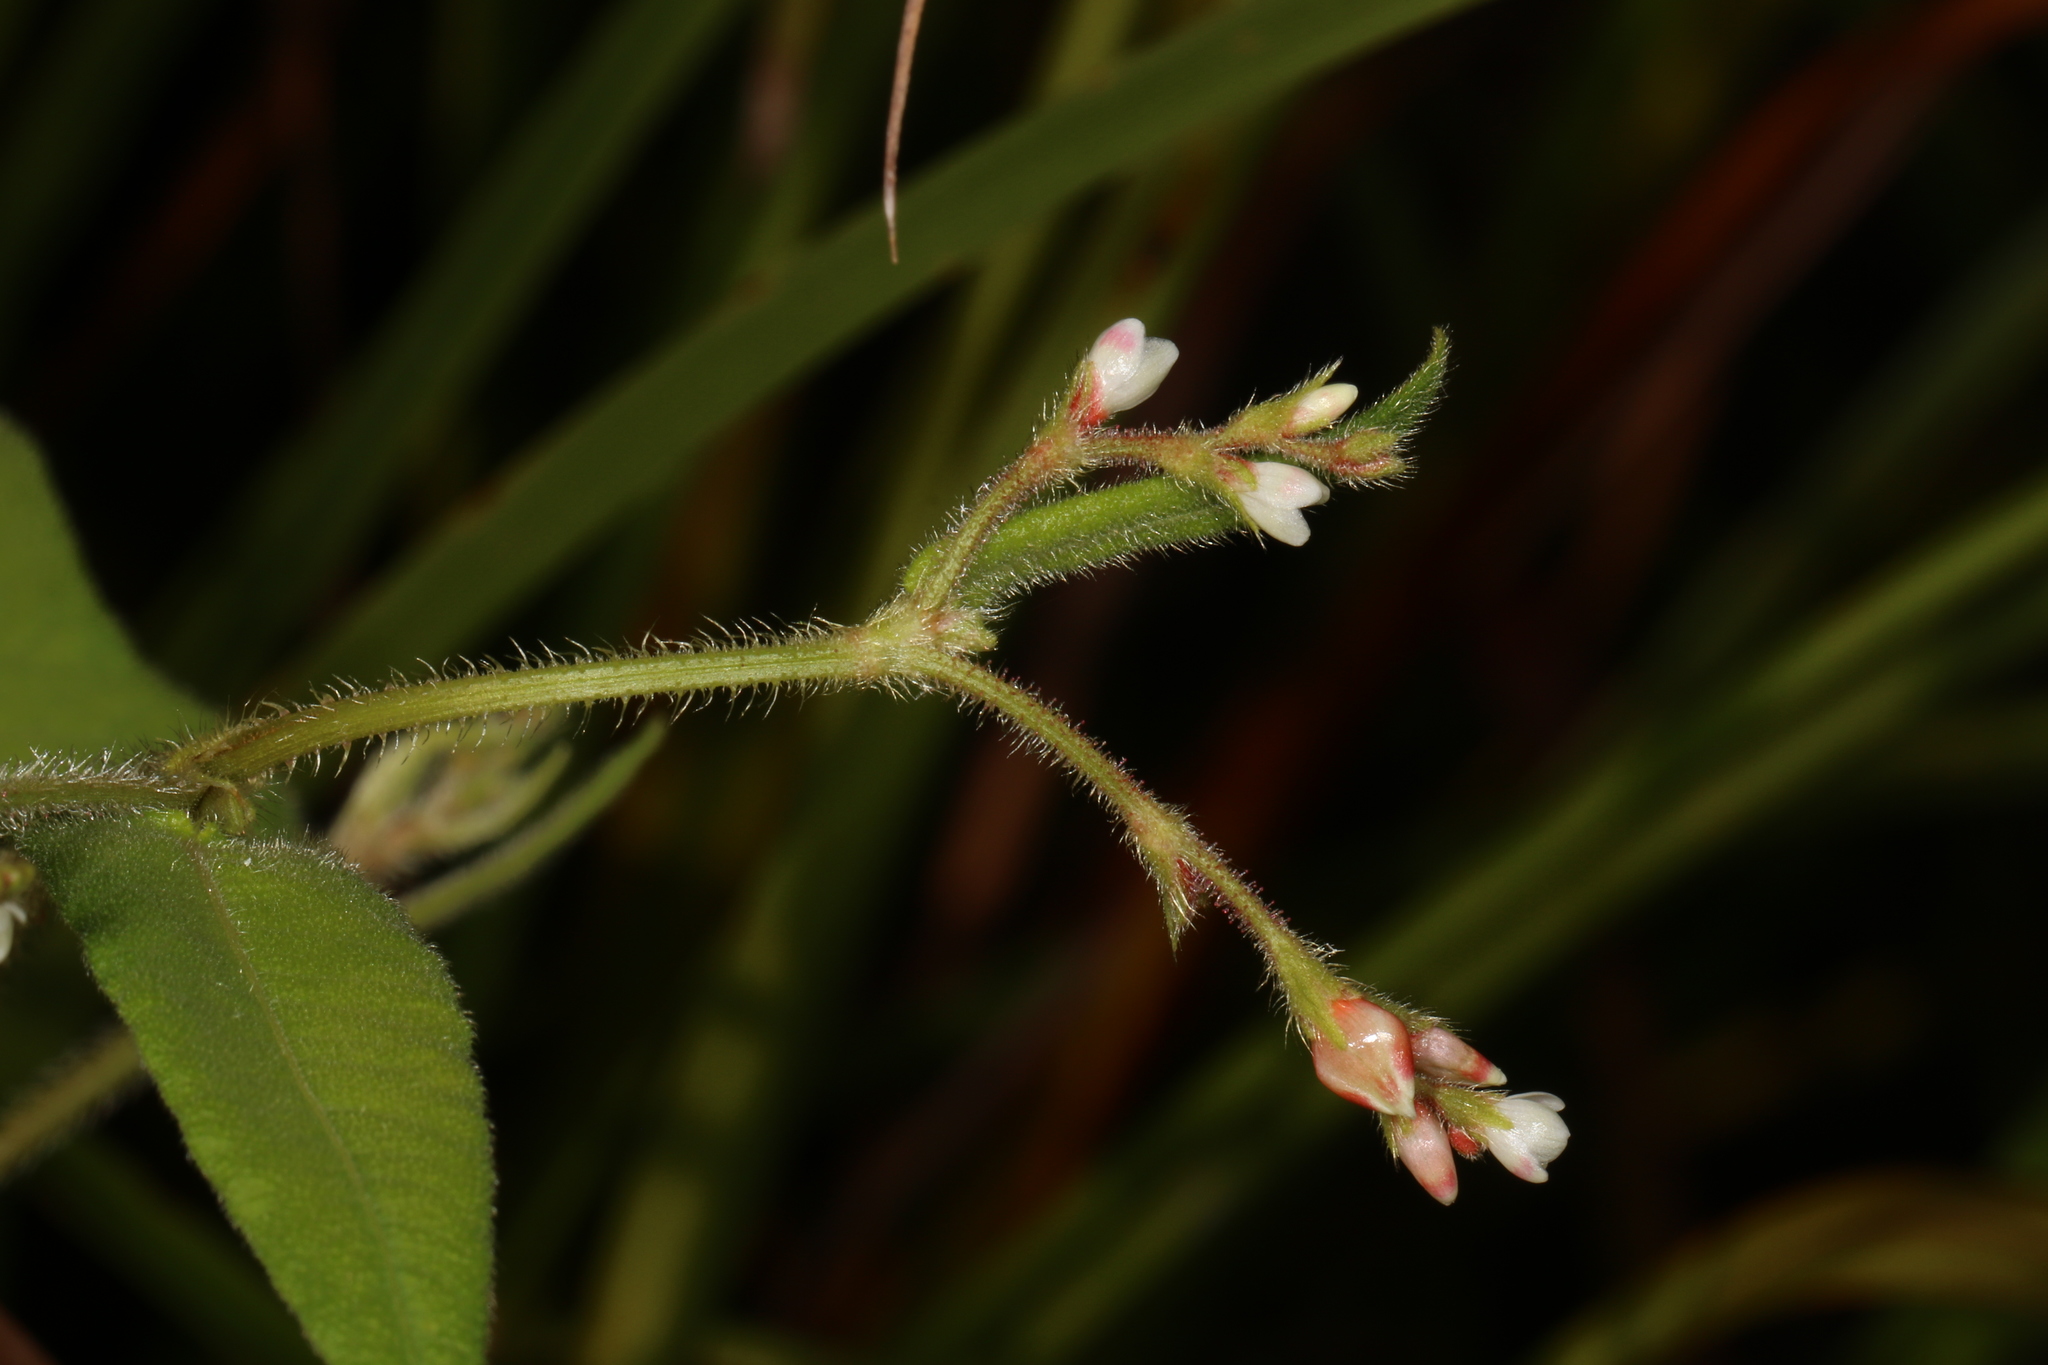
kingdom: Plantae
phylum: Tracheophyta
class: Magnoliopsida
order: Caryophyllales
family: Polygonaceae
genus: Persicaria
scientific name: Persicaria arifolia
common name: Halberd-leaved tear-thumb
